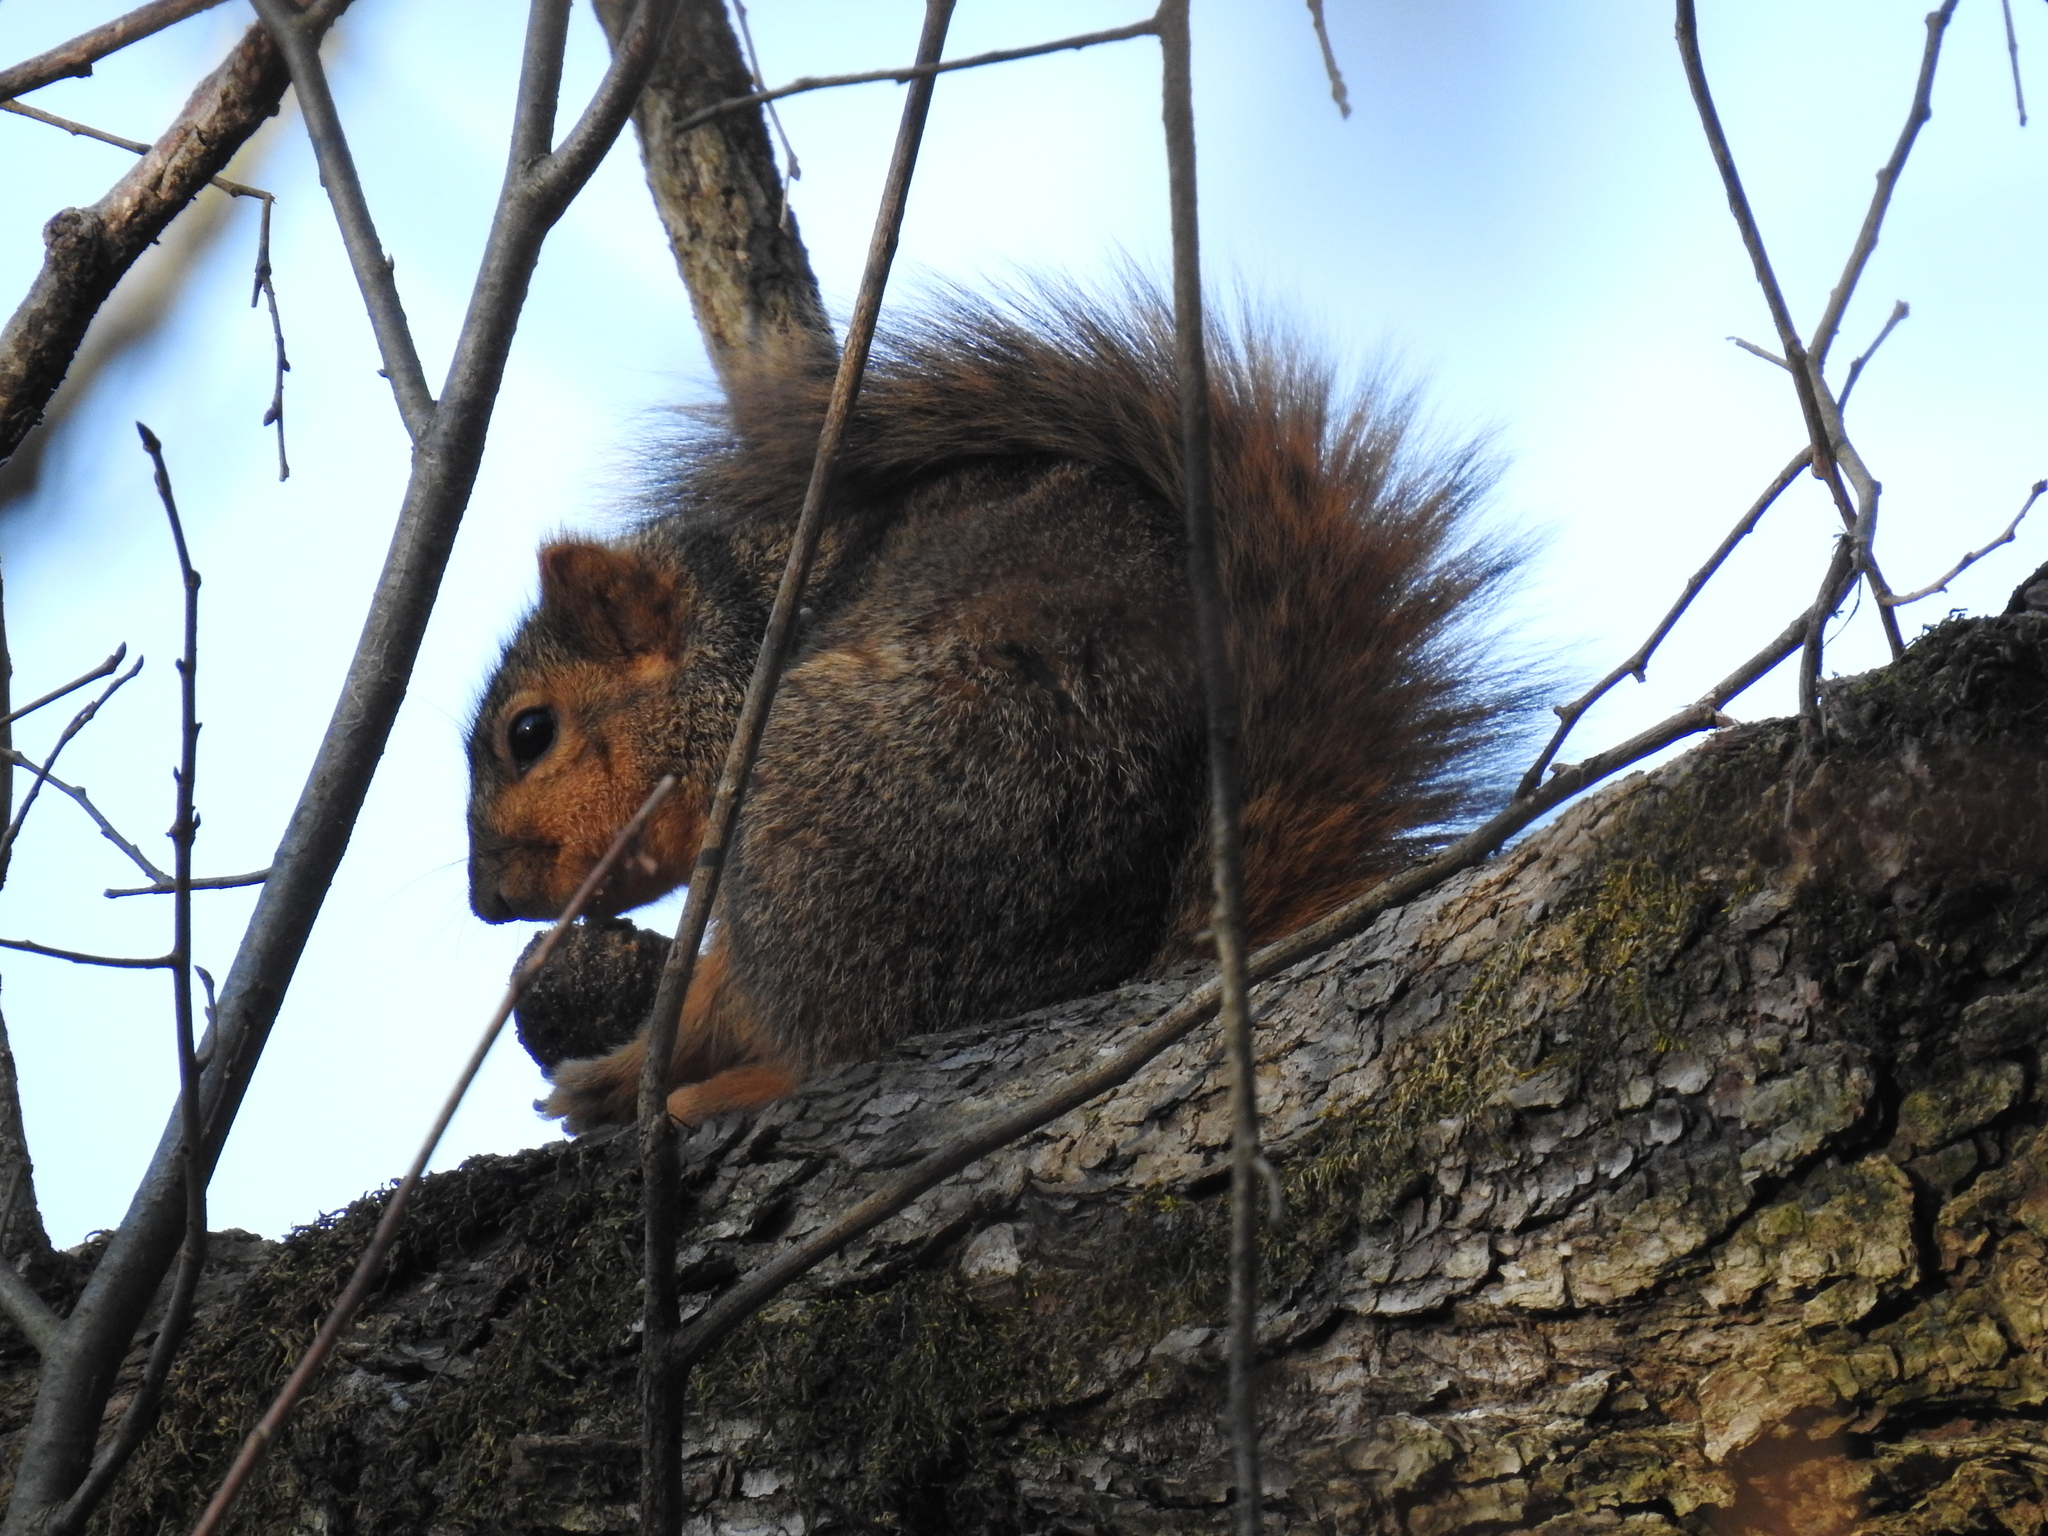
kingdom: Animalia
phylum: Chordata
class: Mammalia
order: Rodentia
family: Sciuridae
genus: Sciurus
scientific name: Sciurus niger
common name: Fox squirrel
